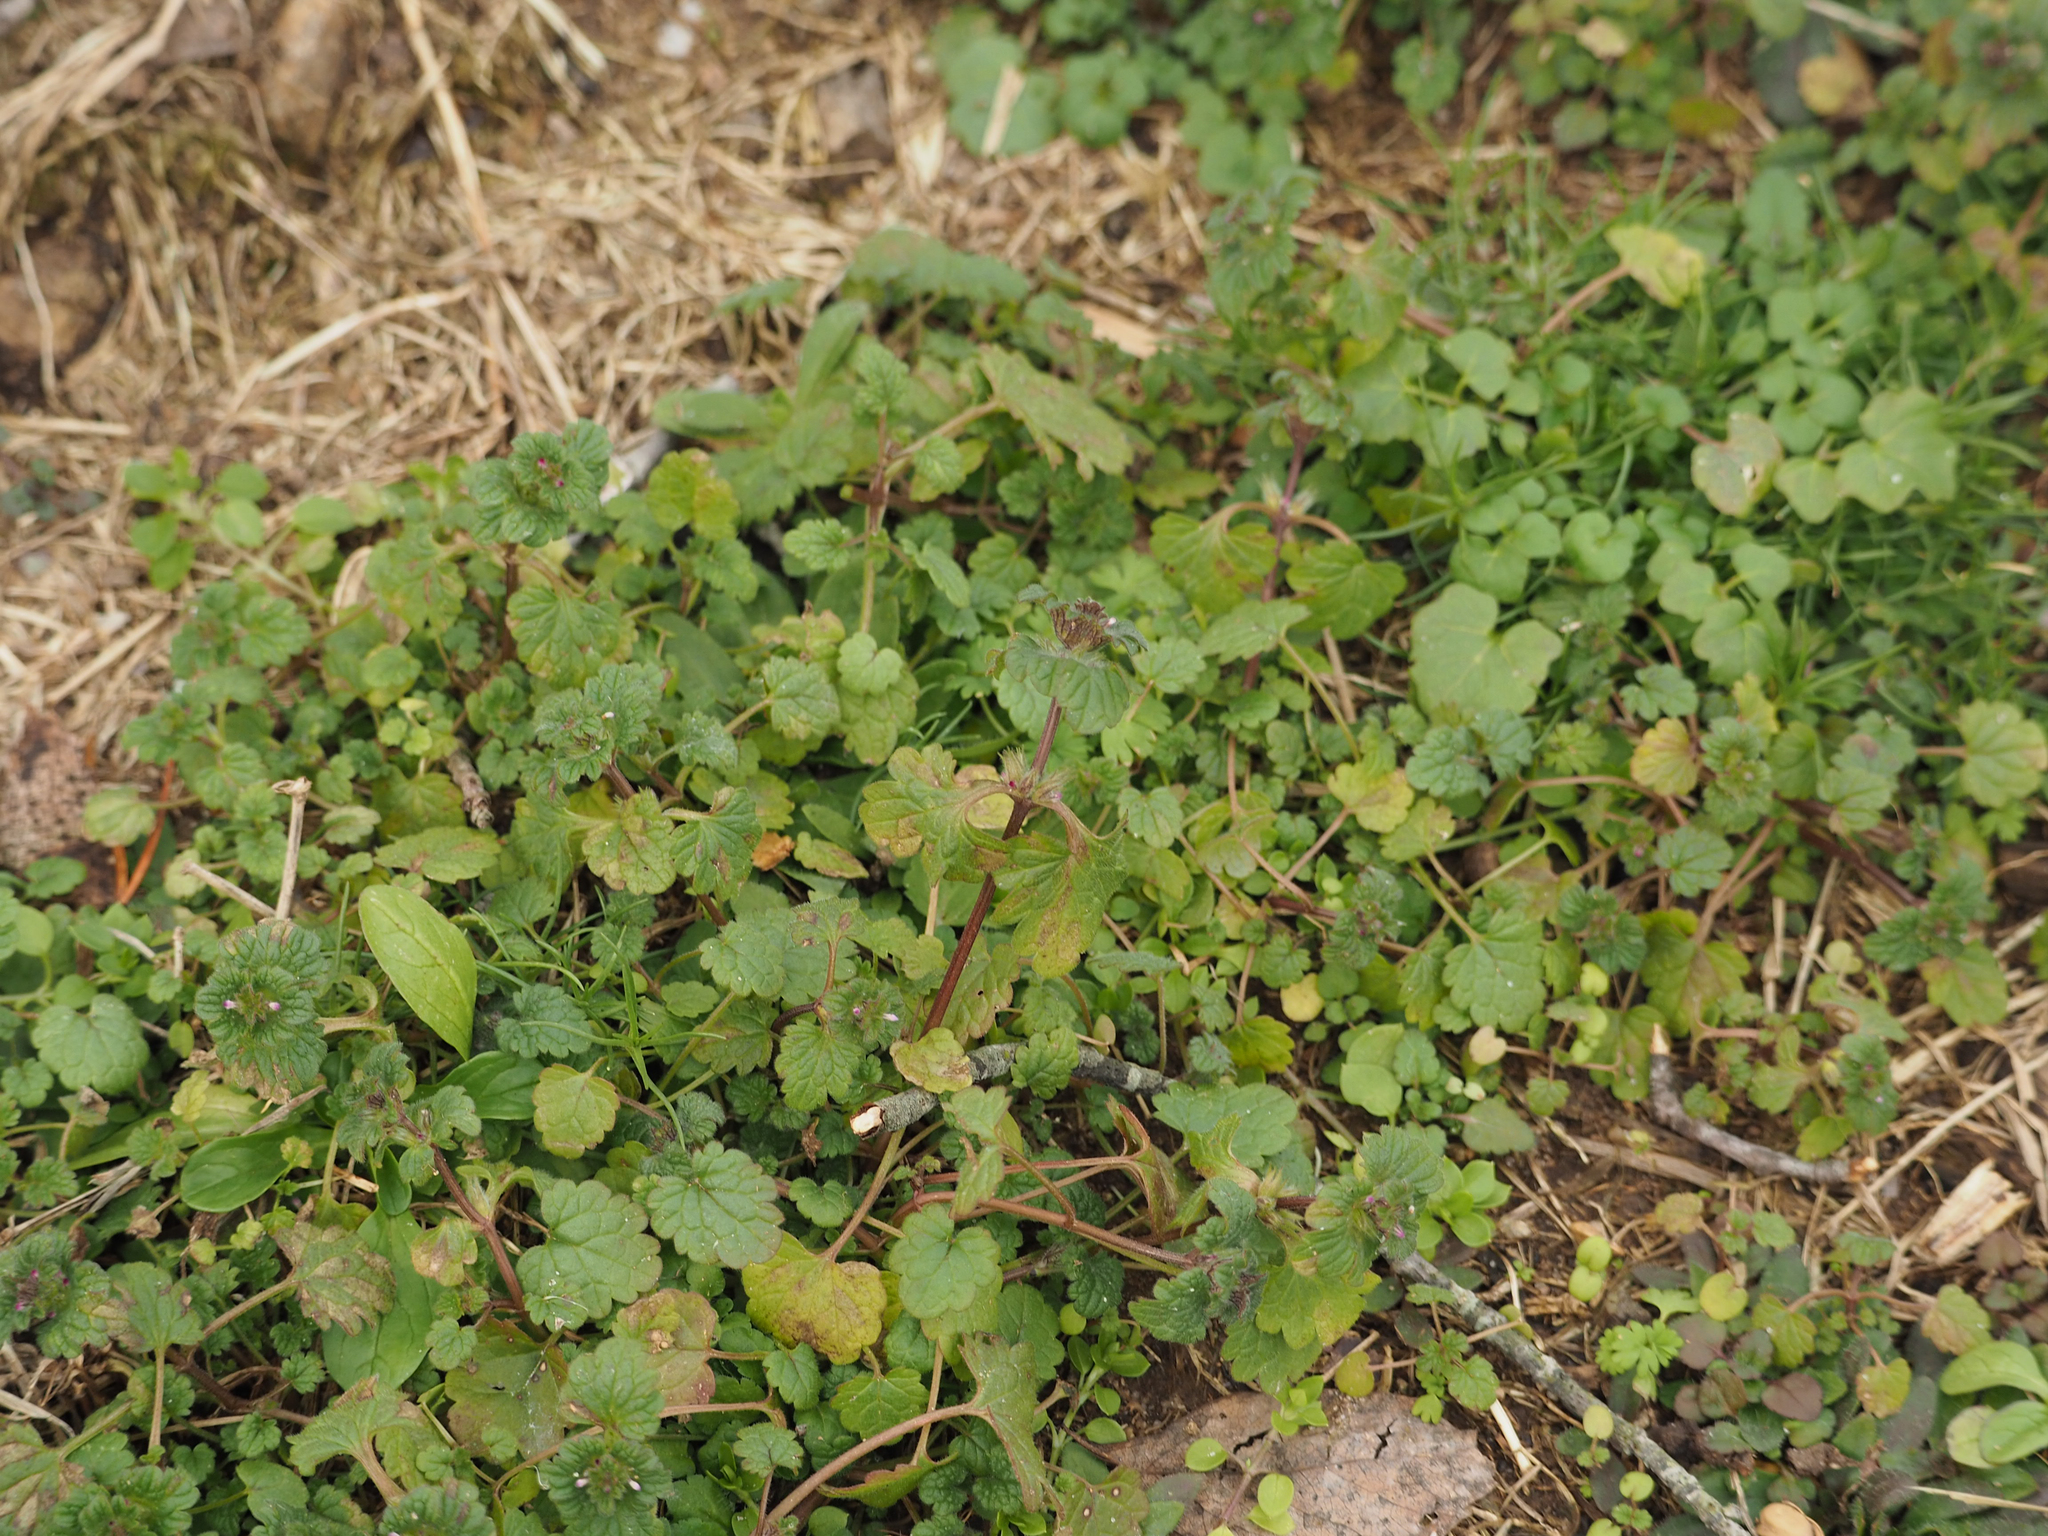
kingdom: Plantae
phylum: Tracheophyta
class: Magnoliopsida
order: Lamiales
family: Lamiaceae
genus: Lamium
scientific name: Lamium amplexicaule
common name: Henbit dead-nettle
